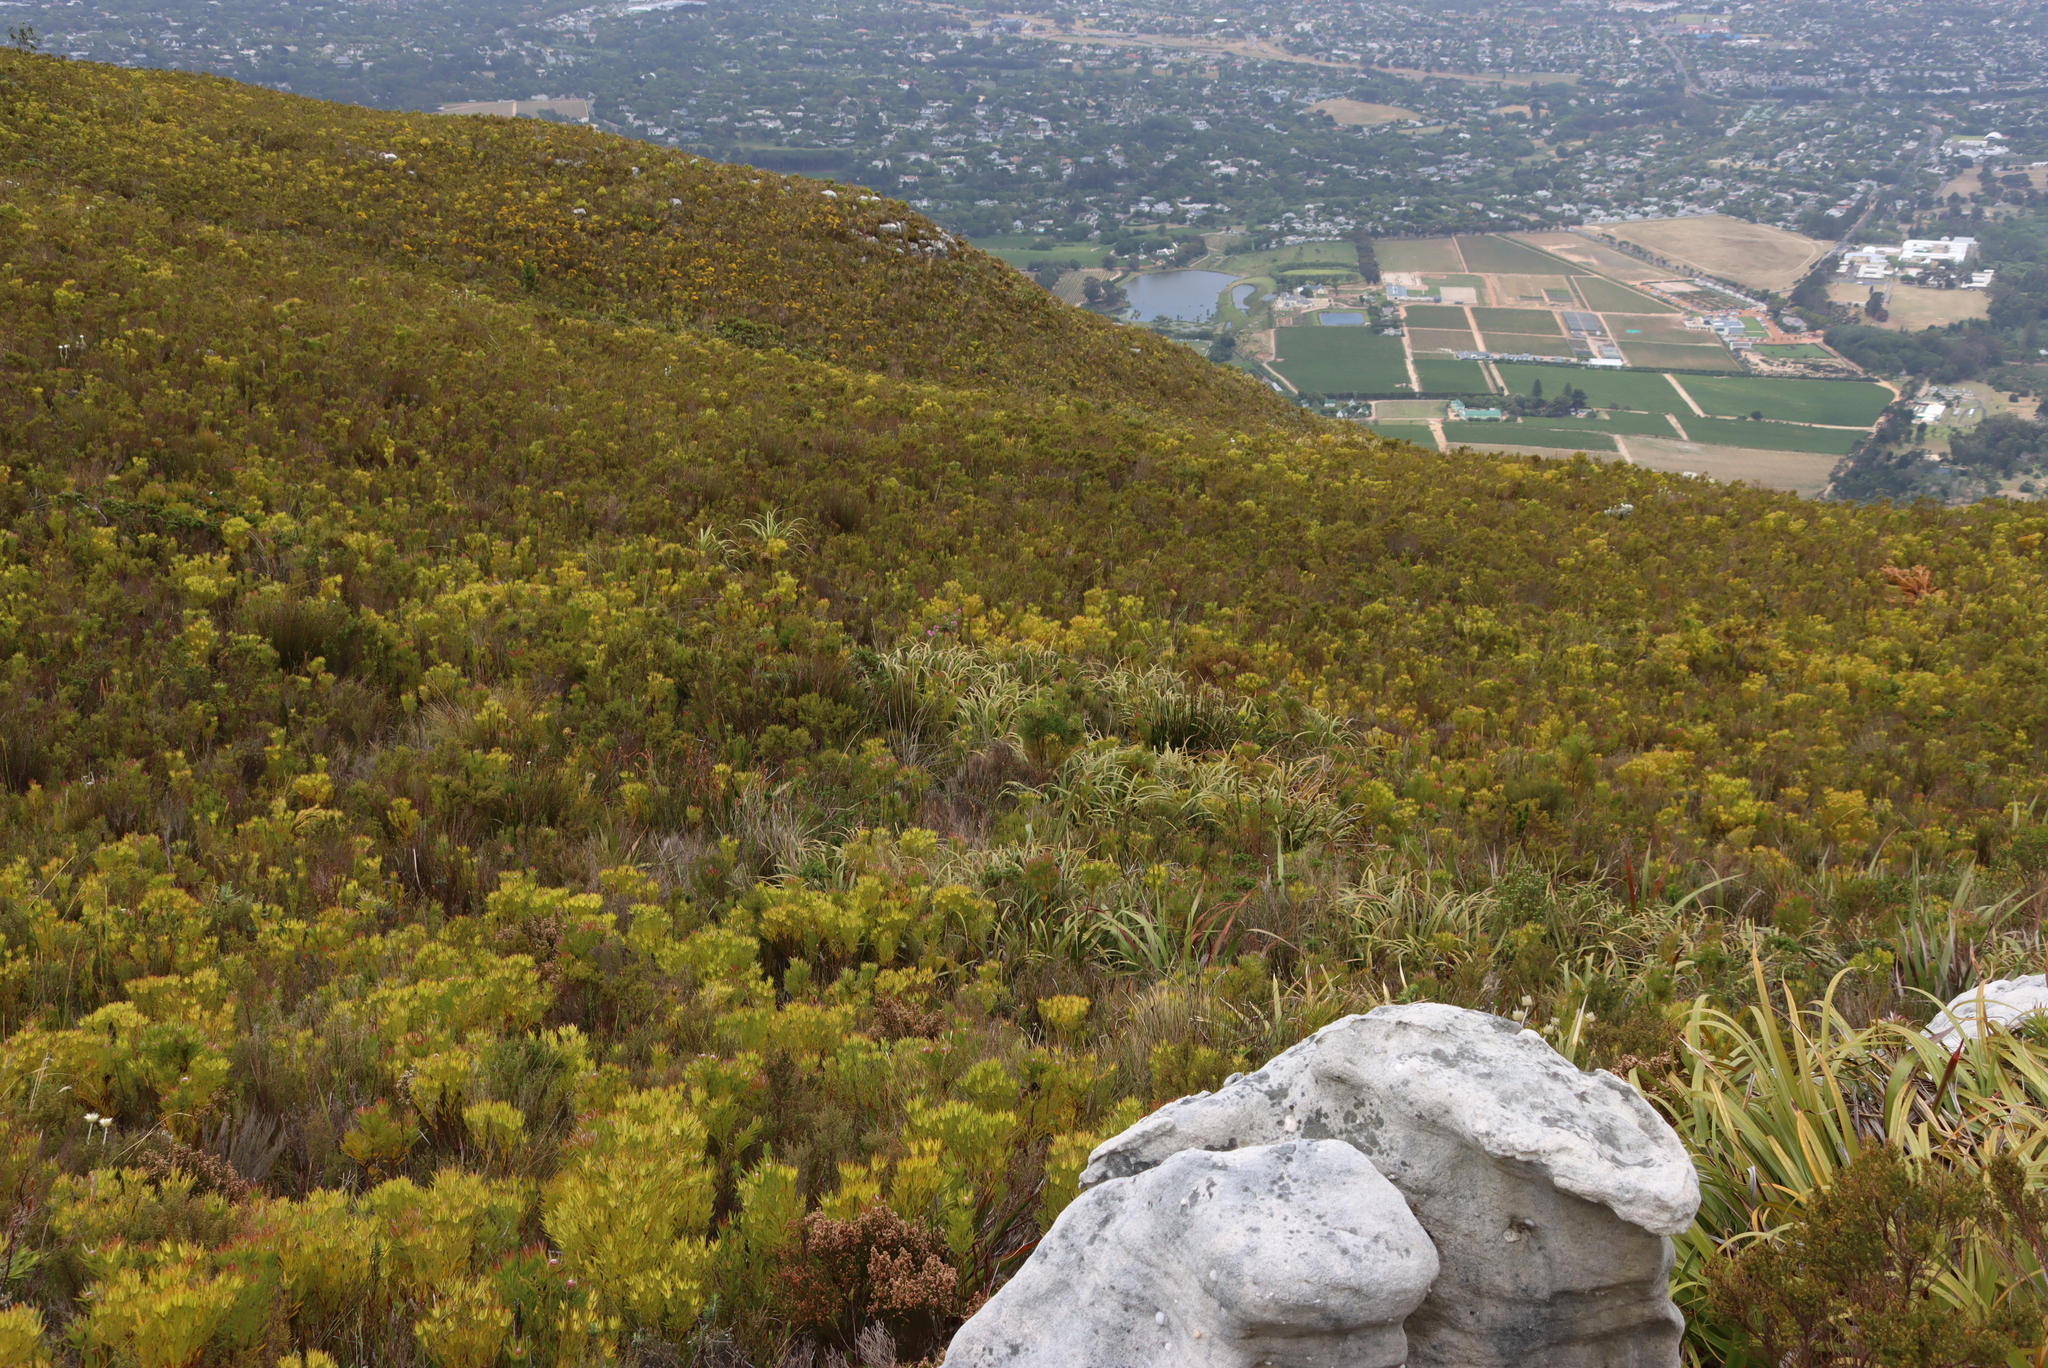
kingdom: Plantae
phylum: Tracheophyta
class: Liliopsida
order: Poales
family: Cyperaceae
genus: Tetraria
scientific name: Tetraria thermalis
